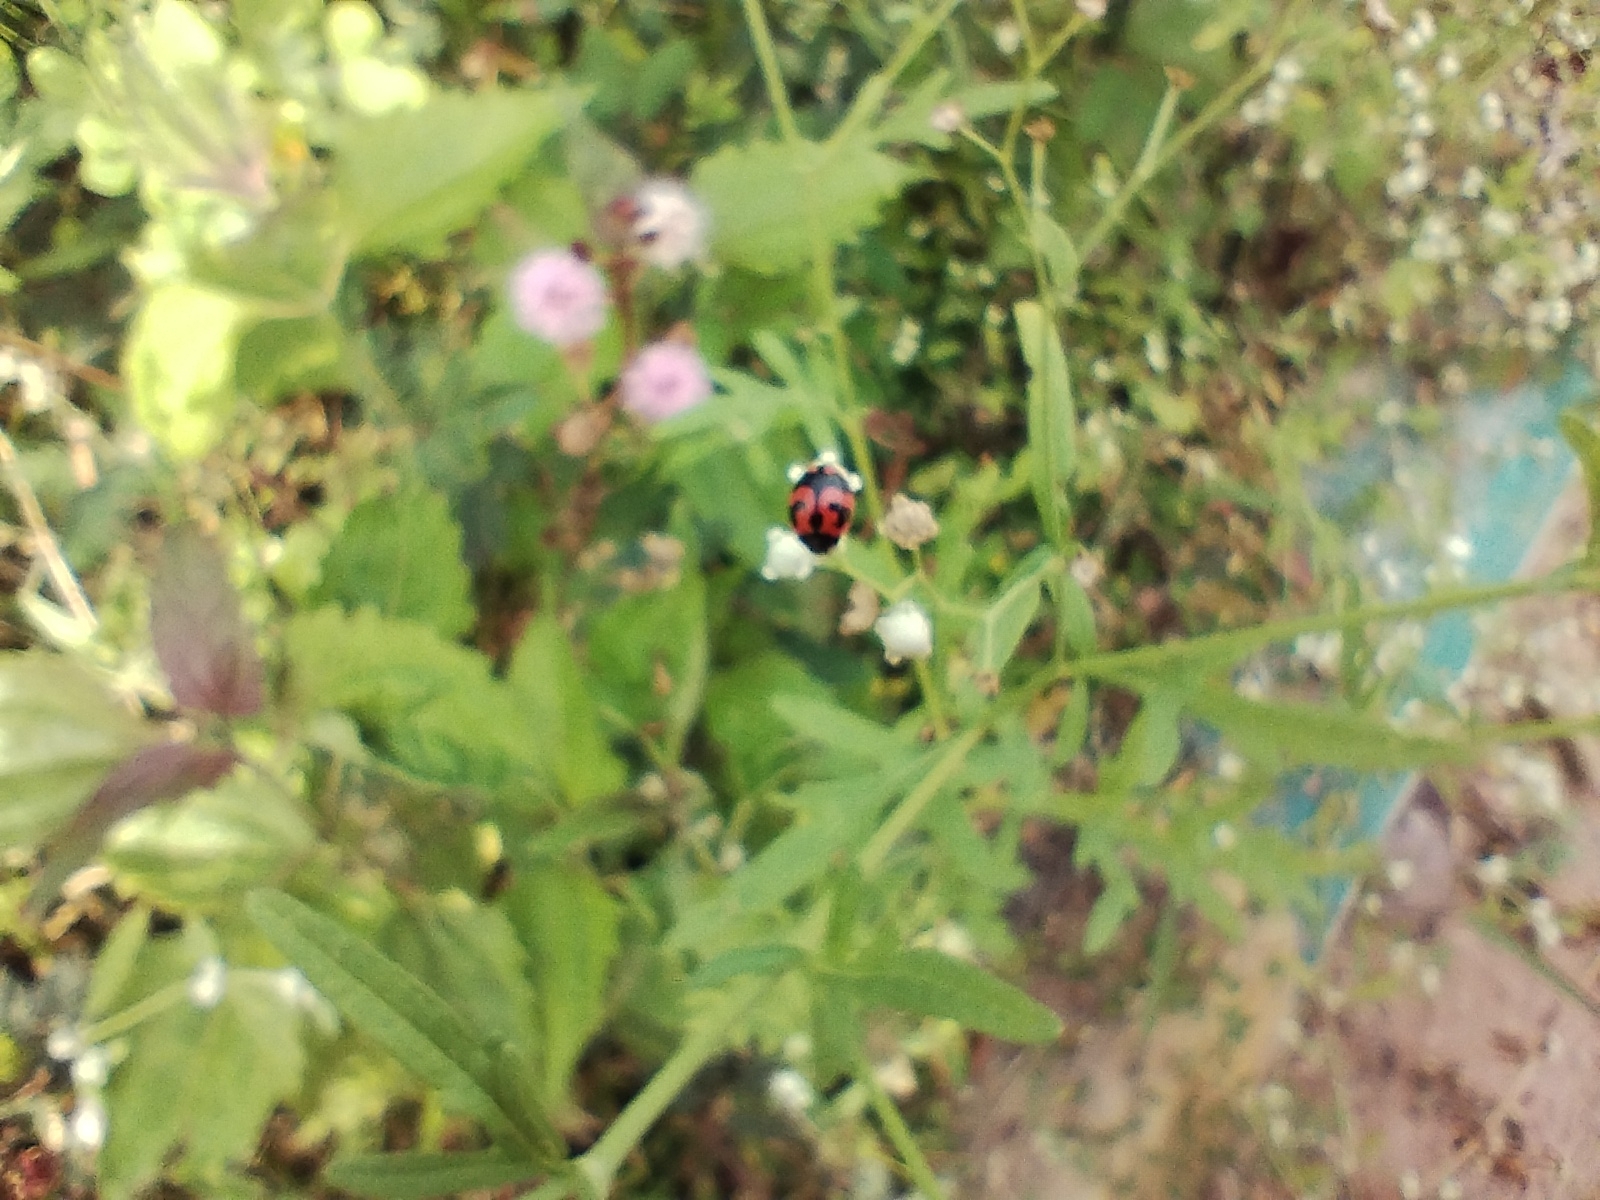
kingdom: Animalia
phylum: Arthropoda
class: Insecta
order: Coleoptera
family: Coccinellidae
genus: Coccinella
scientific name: Coccinella transversalis
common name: Transverse lady beetle
